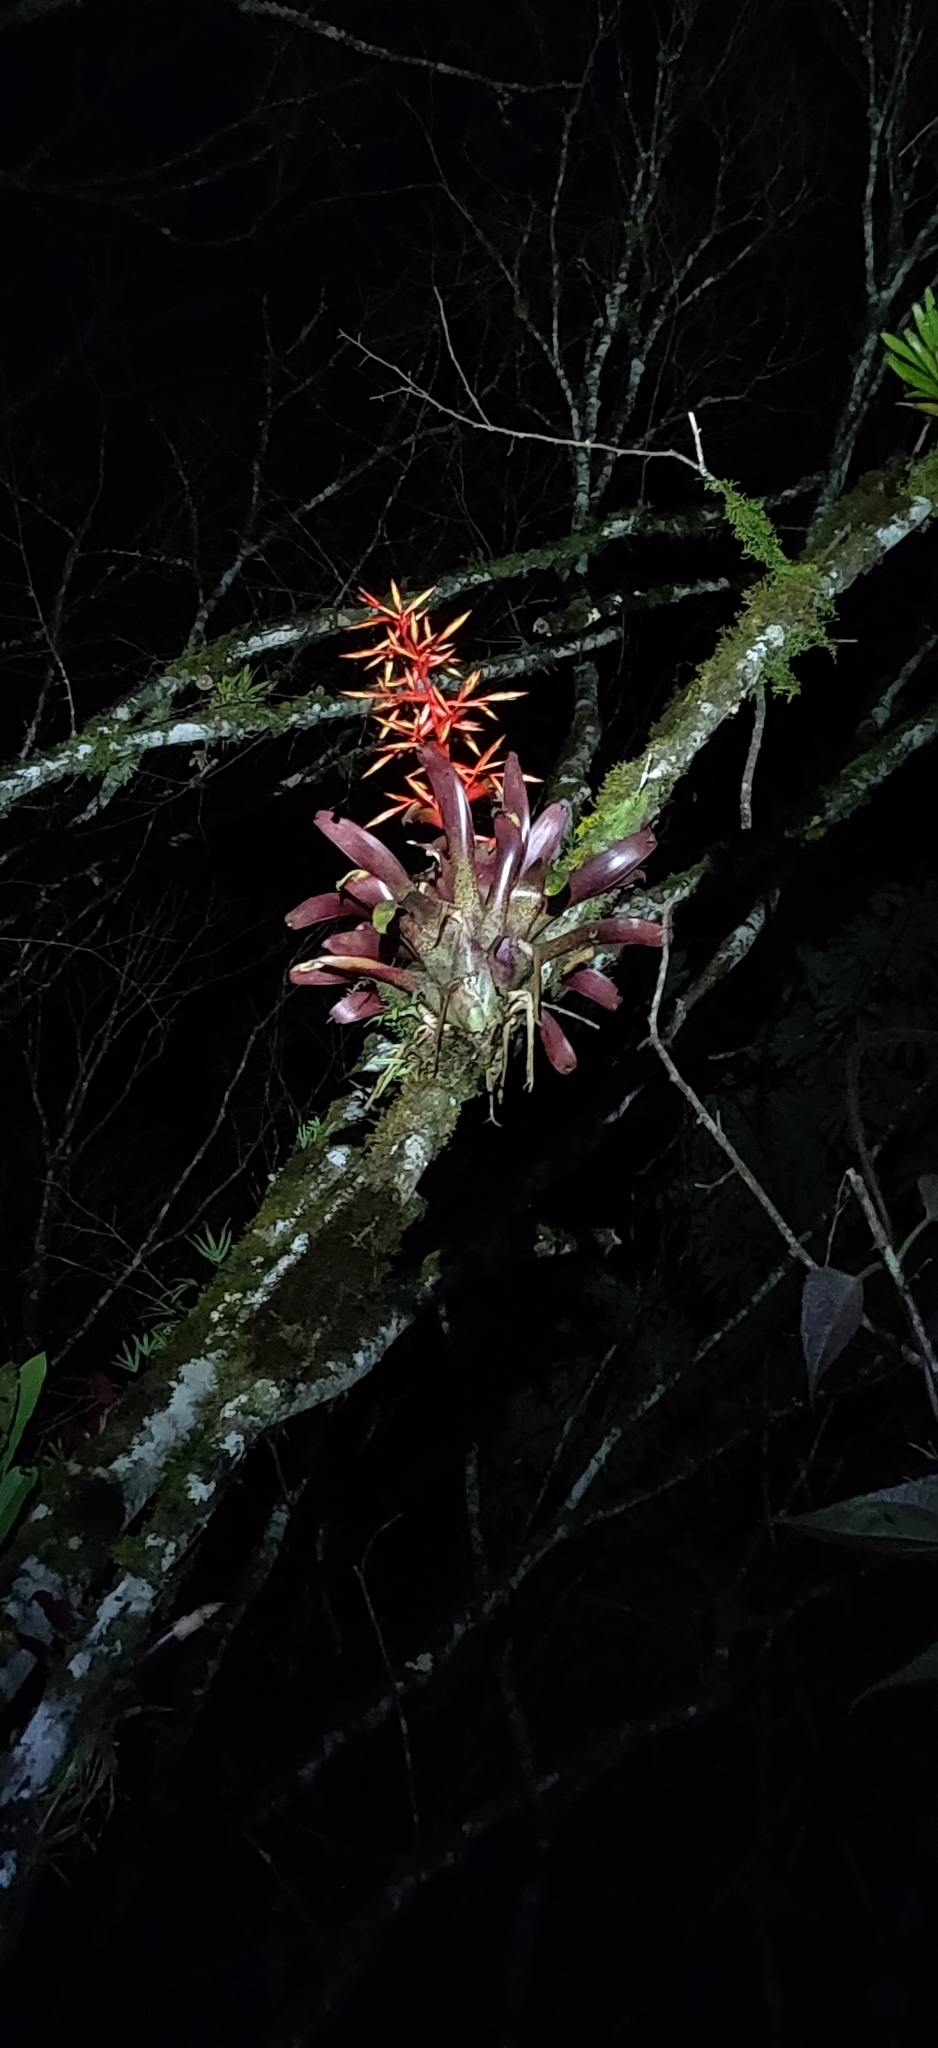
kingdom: Plantae
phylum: Tracheophyta
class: Liliopsida
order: Poales
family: Bromeliaceae
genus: Tillandsia
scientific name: Tillandsia guatemalensis
